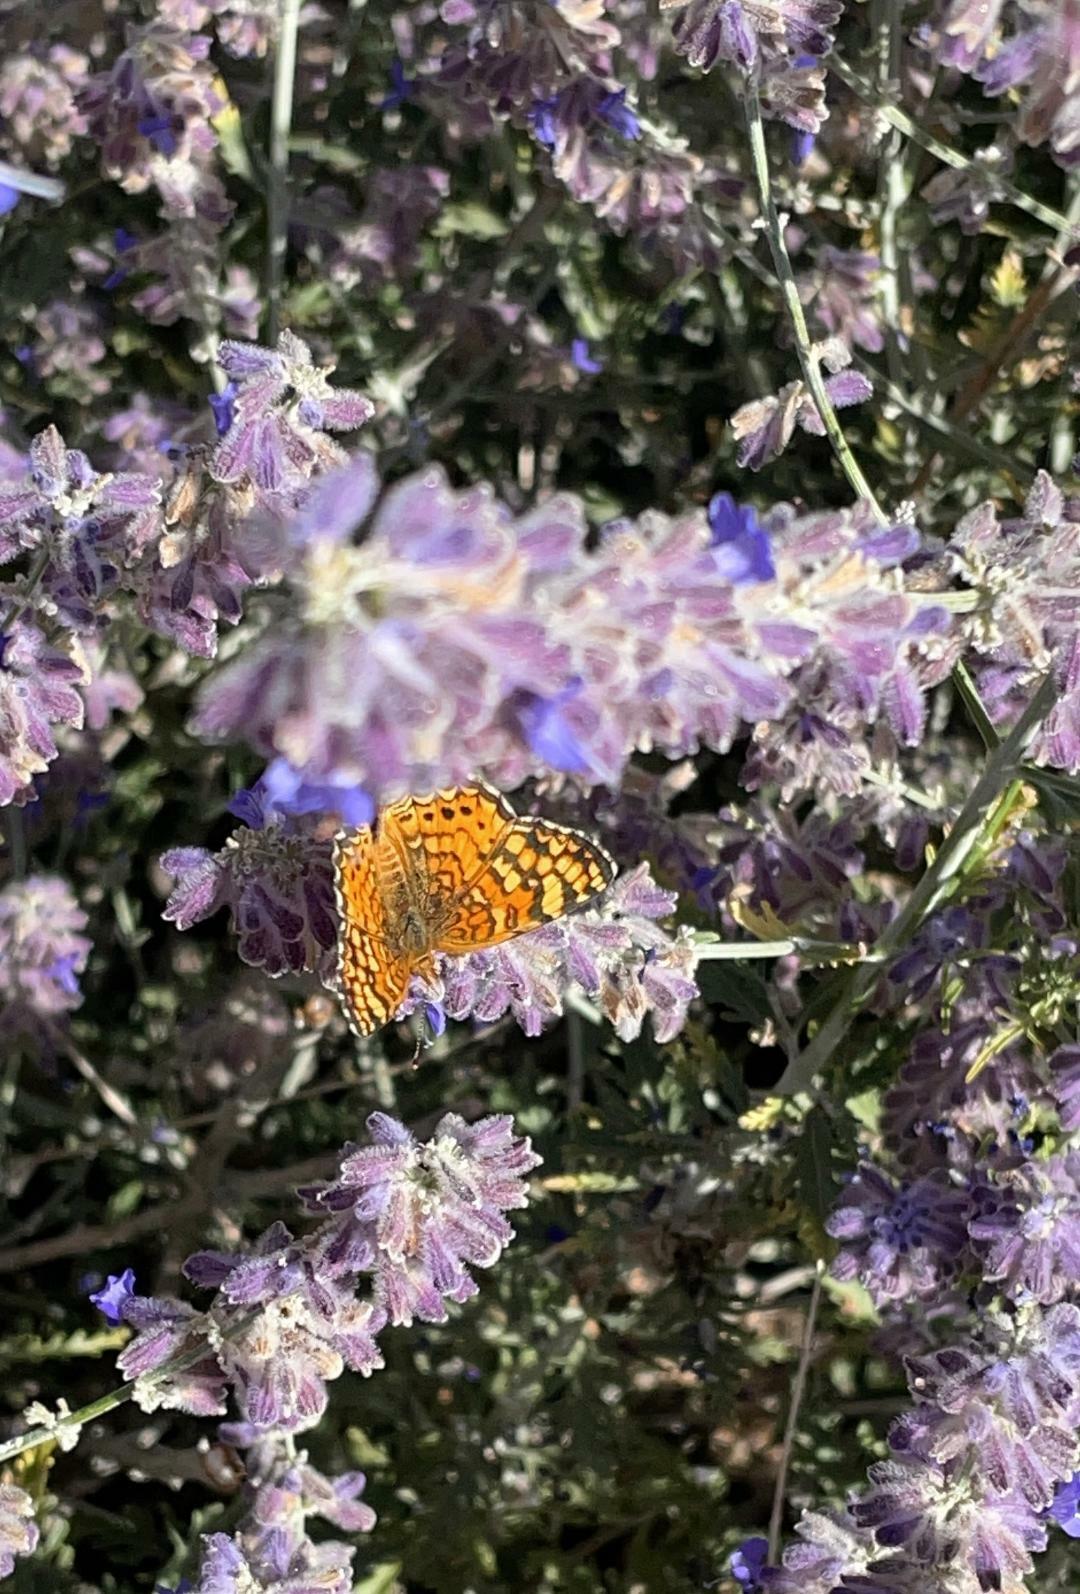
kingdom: Animalia
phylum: Arthropoda
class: Insecta
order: Lepidoptera
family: Nymphalidae
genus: Eresia
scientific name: Eresia aveyrona
